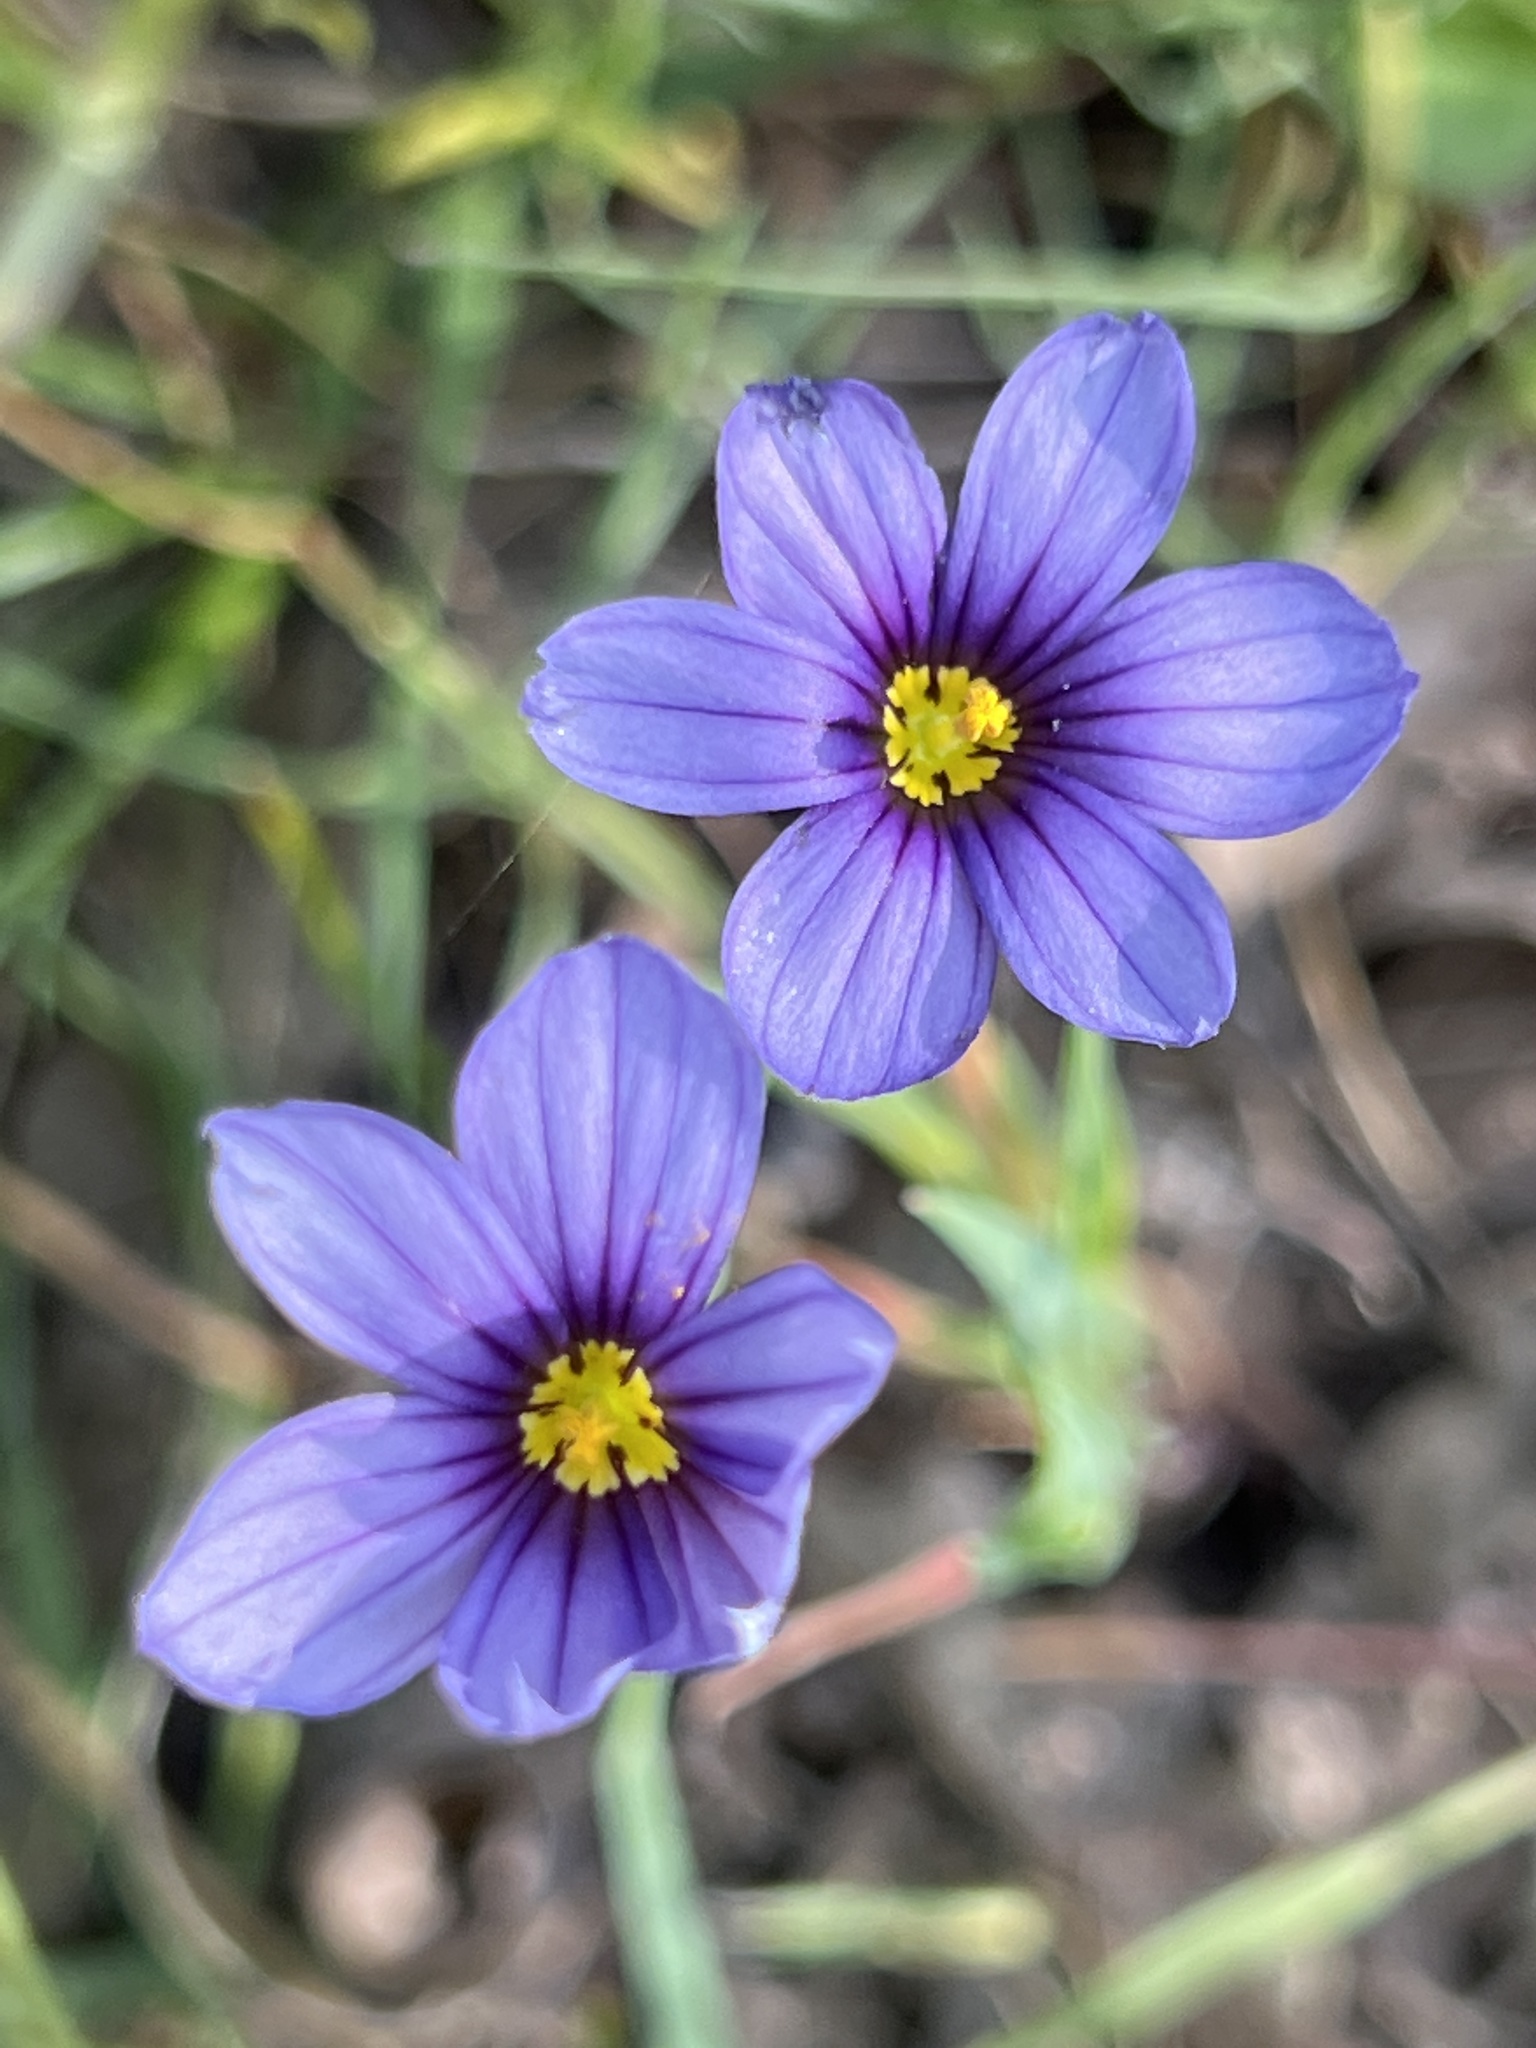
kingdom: Plantae
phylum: Tracheophyta
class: Liliopsida
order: Asparagales
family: Iridaceae
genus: Sisyrinchium
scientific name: Sisyrinchium bellum
